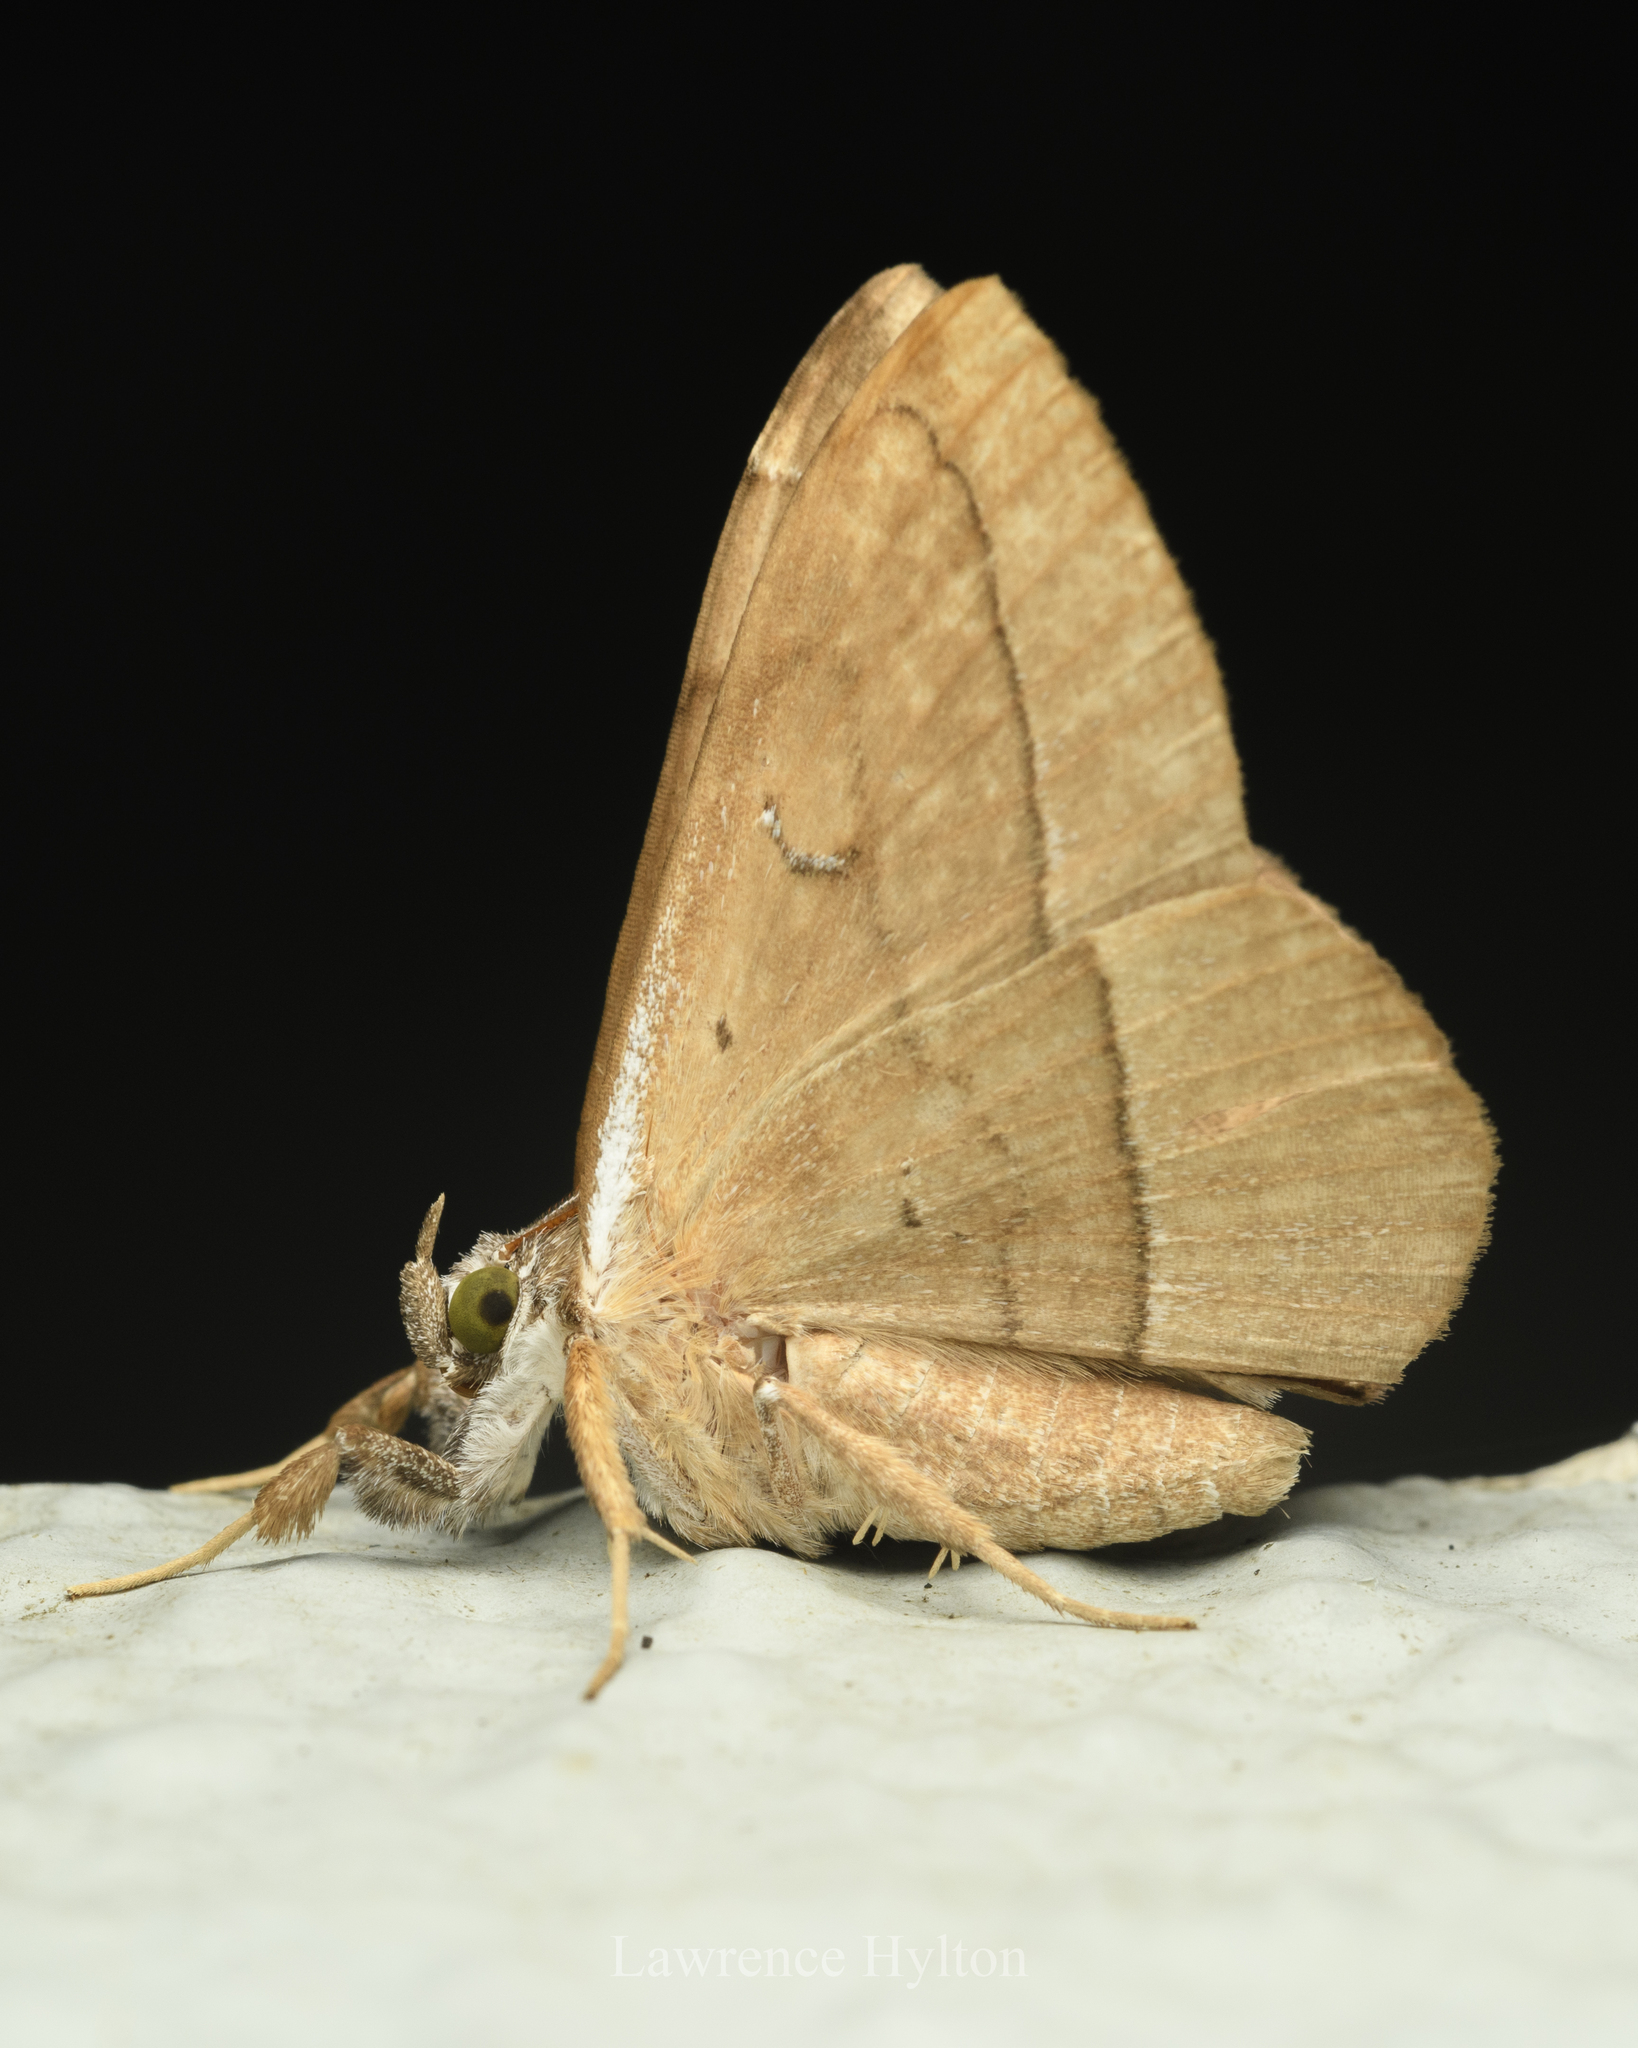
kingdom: Animalia
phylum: Arthropoda
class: Insecta
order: Lepidoptera
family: Erebidae
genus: Taviodes
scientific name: Taviodes fulvescens
